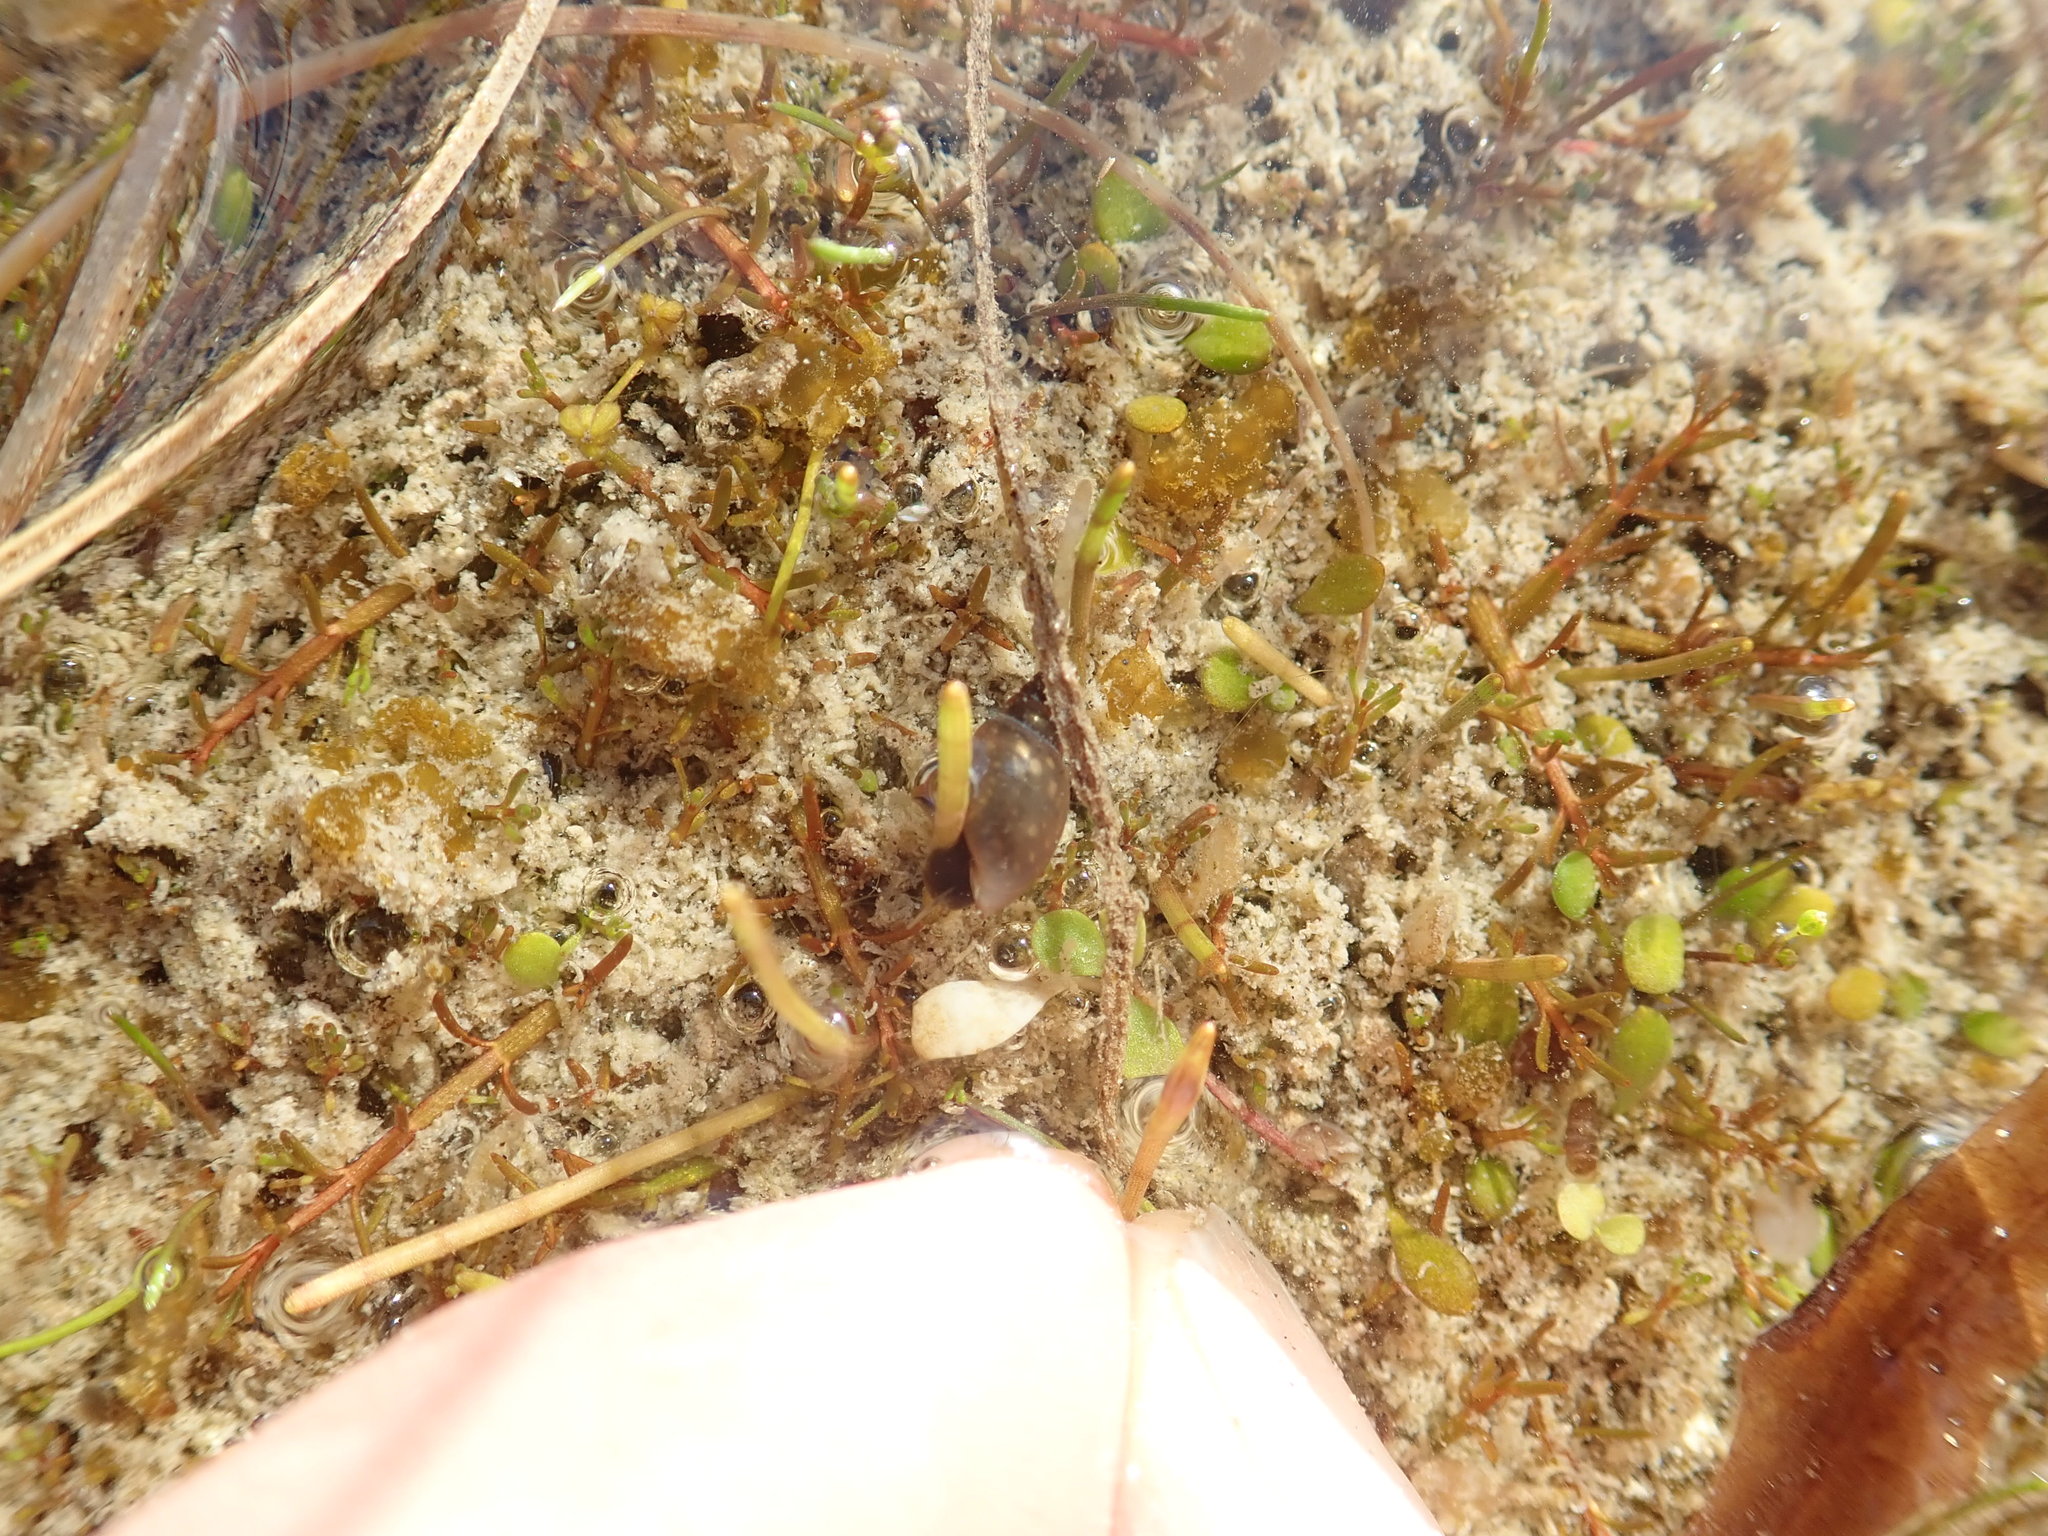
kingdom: Animalia
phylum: Mollusca
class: Gastropoda
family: Physidae
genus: Physella
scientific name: Physella acuta
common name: European physa
